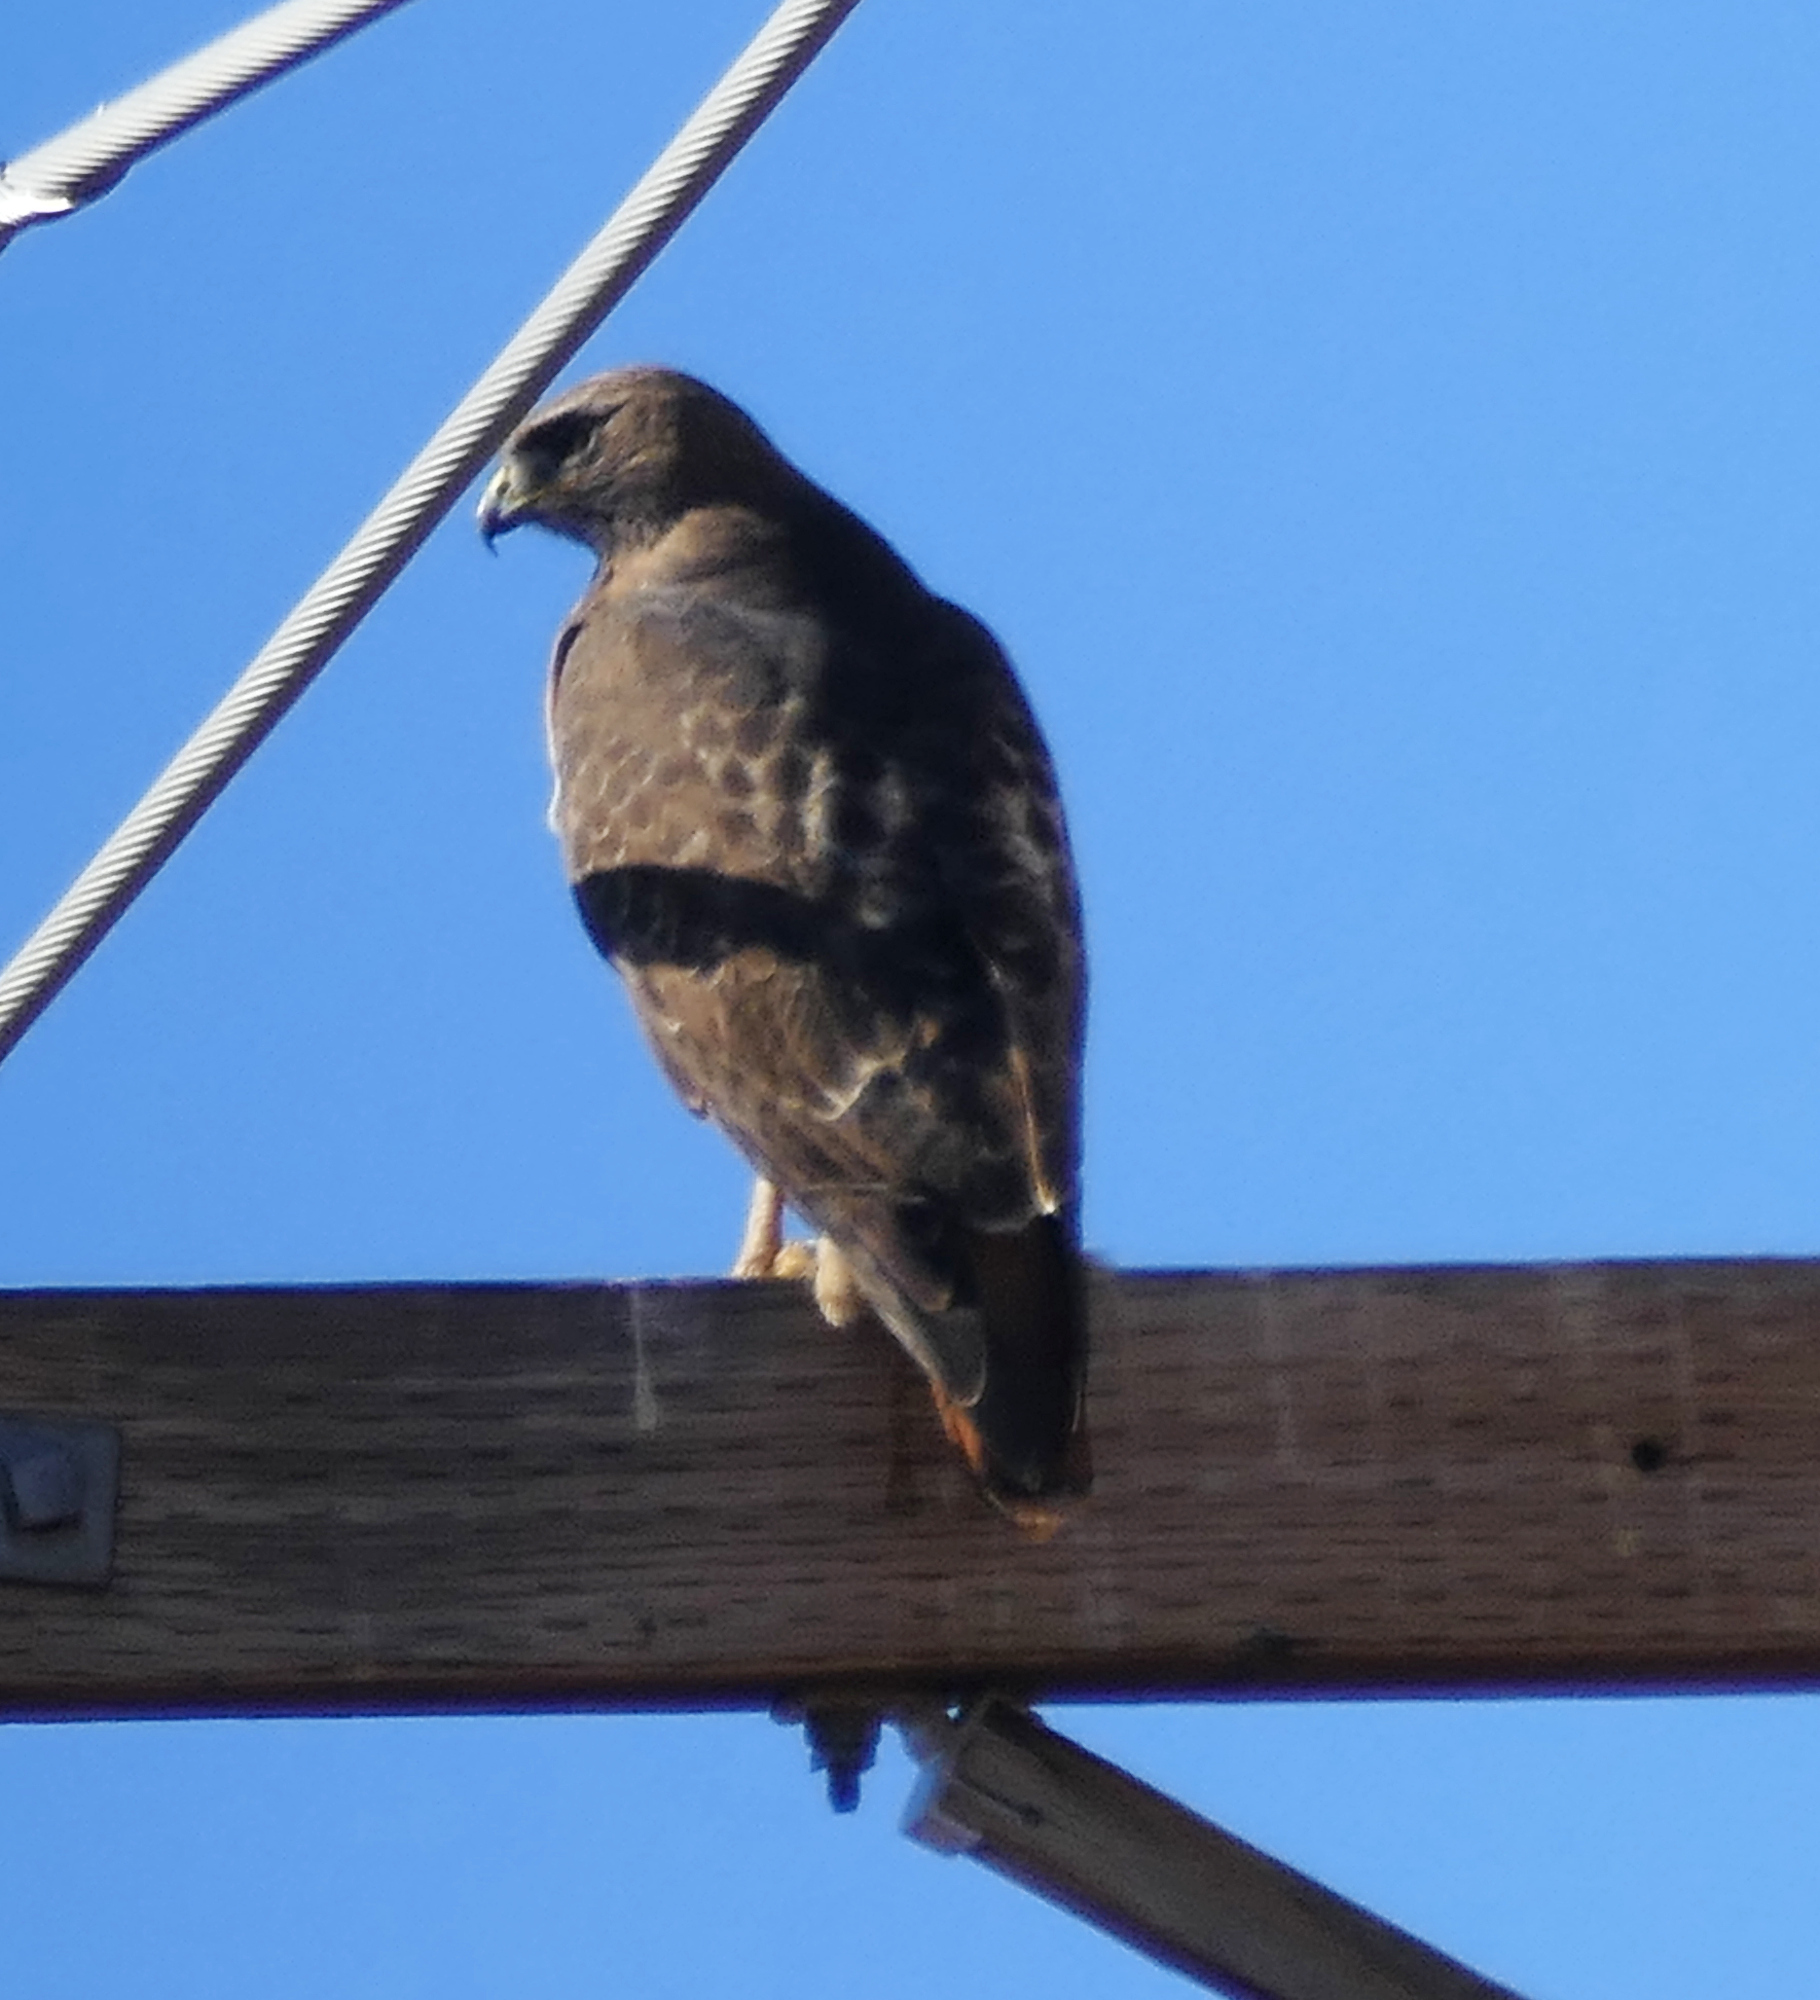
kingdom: Animalia
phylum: Chordata
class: Aves
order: Accipitriformes
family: Accipitridae
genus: Buteo
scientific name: Buteo jamaicensis
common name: Red-tailed hawk
